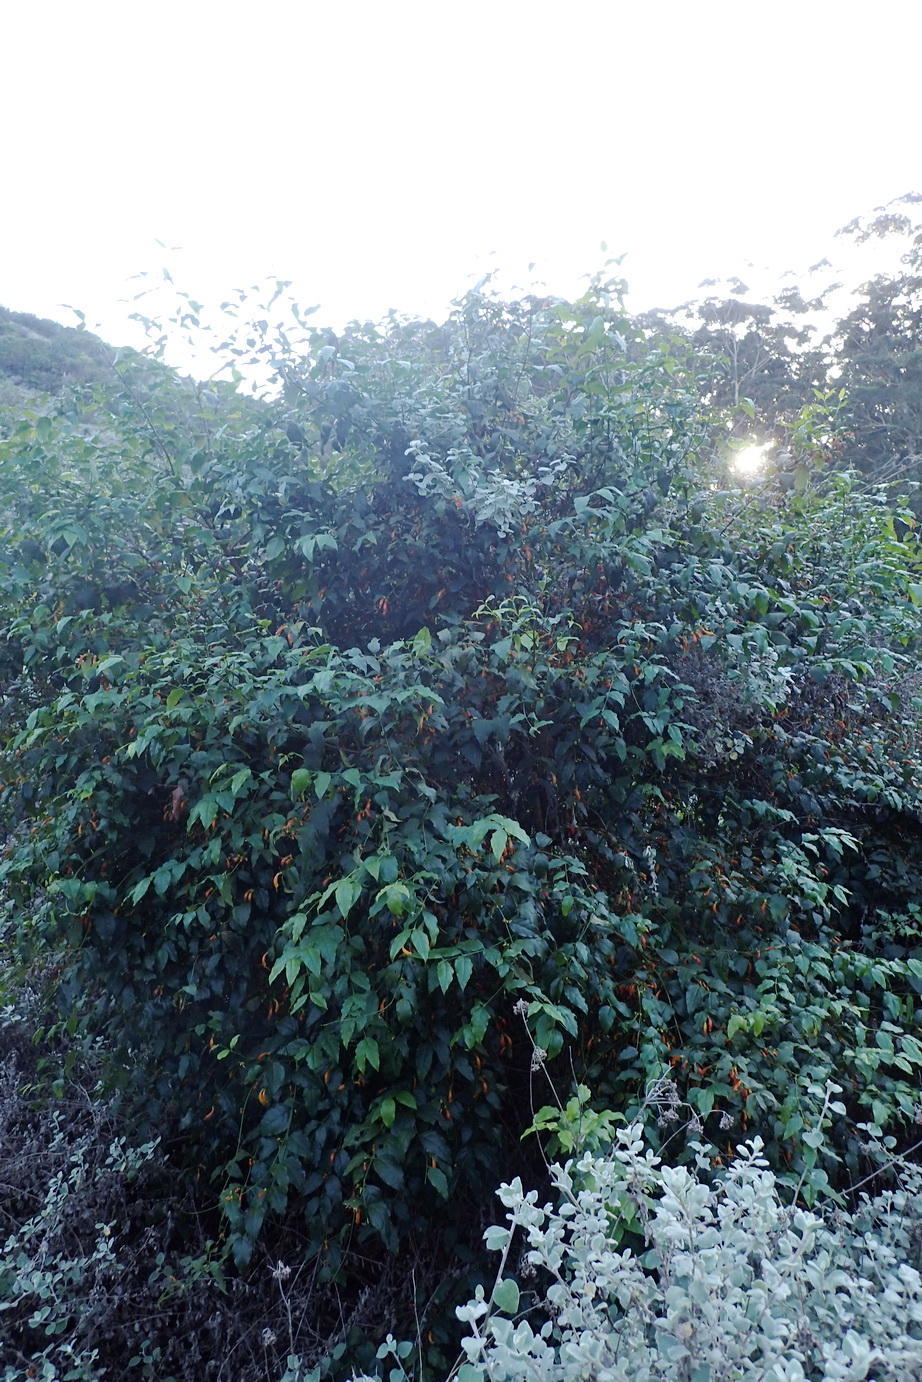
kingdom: Plantae
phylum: Tracheophyta
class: Magnoliopsida
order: Lamiales
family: Stilbaceae
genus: Halleria
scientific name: Halleria lucida
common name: Tree fuschia
